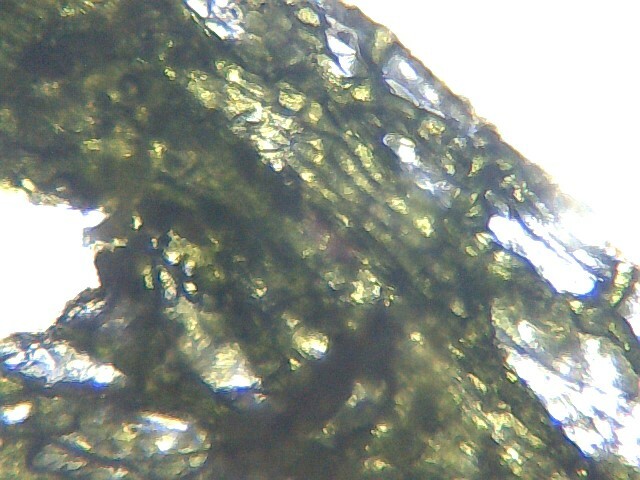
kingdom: Plantae
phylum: Marchantiophyta
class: Marchantiopsida
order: Marchantiales
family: Ricciaceae
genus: Riccia
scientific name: Riccia rhenana
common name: Pond crystalwort
